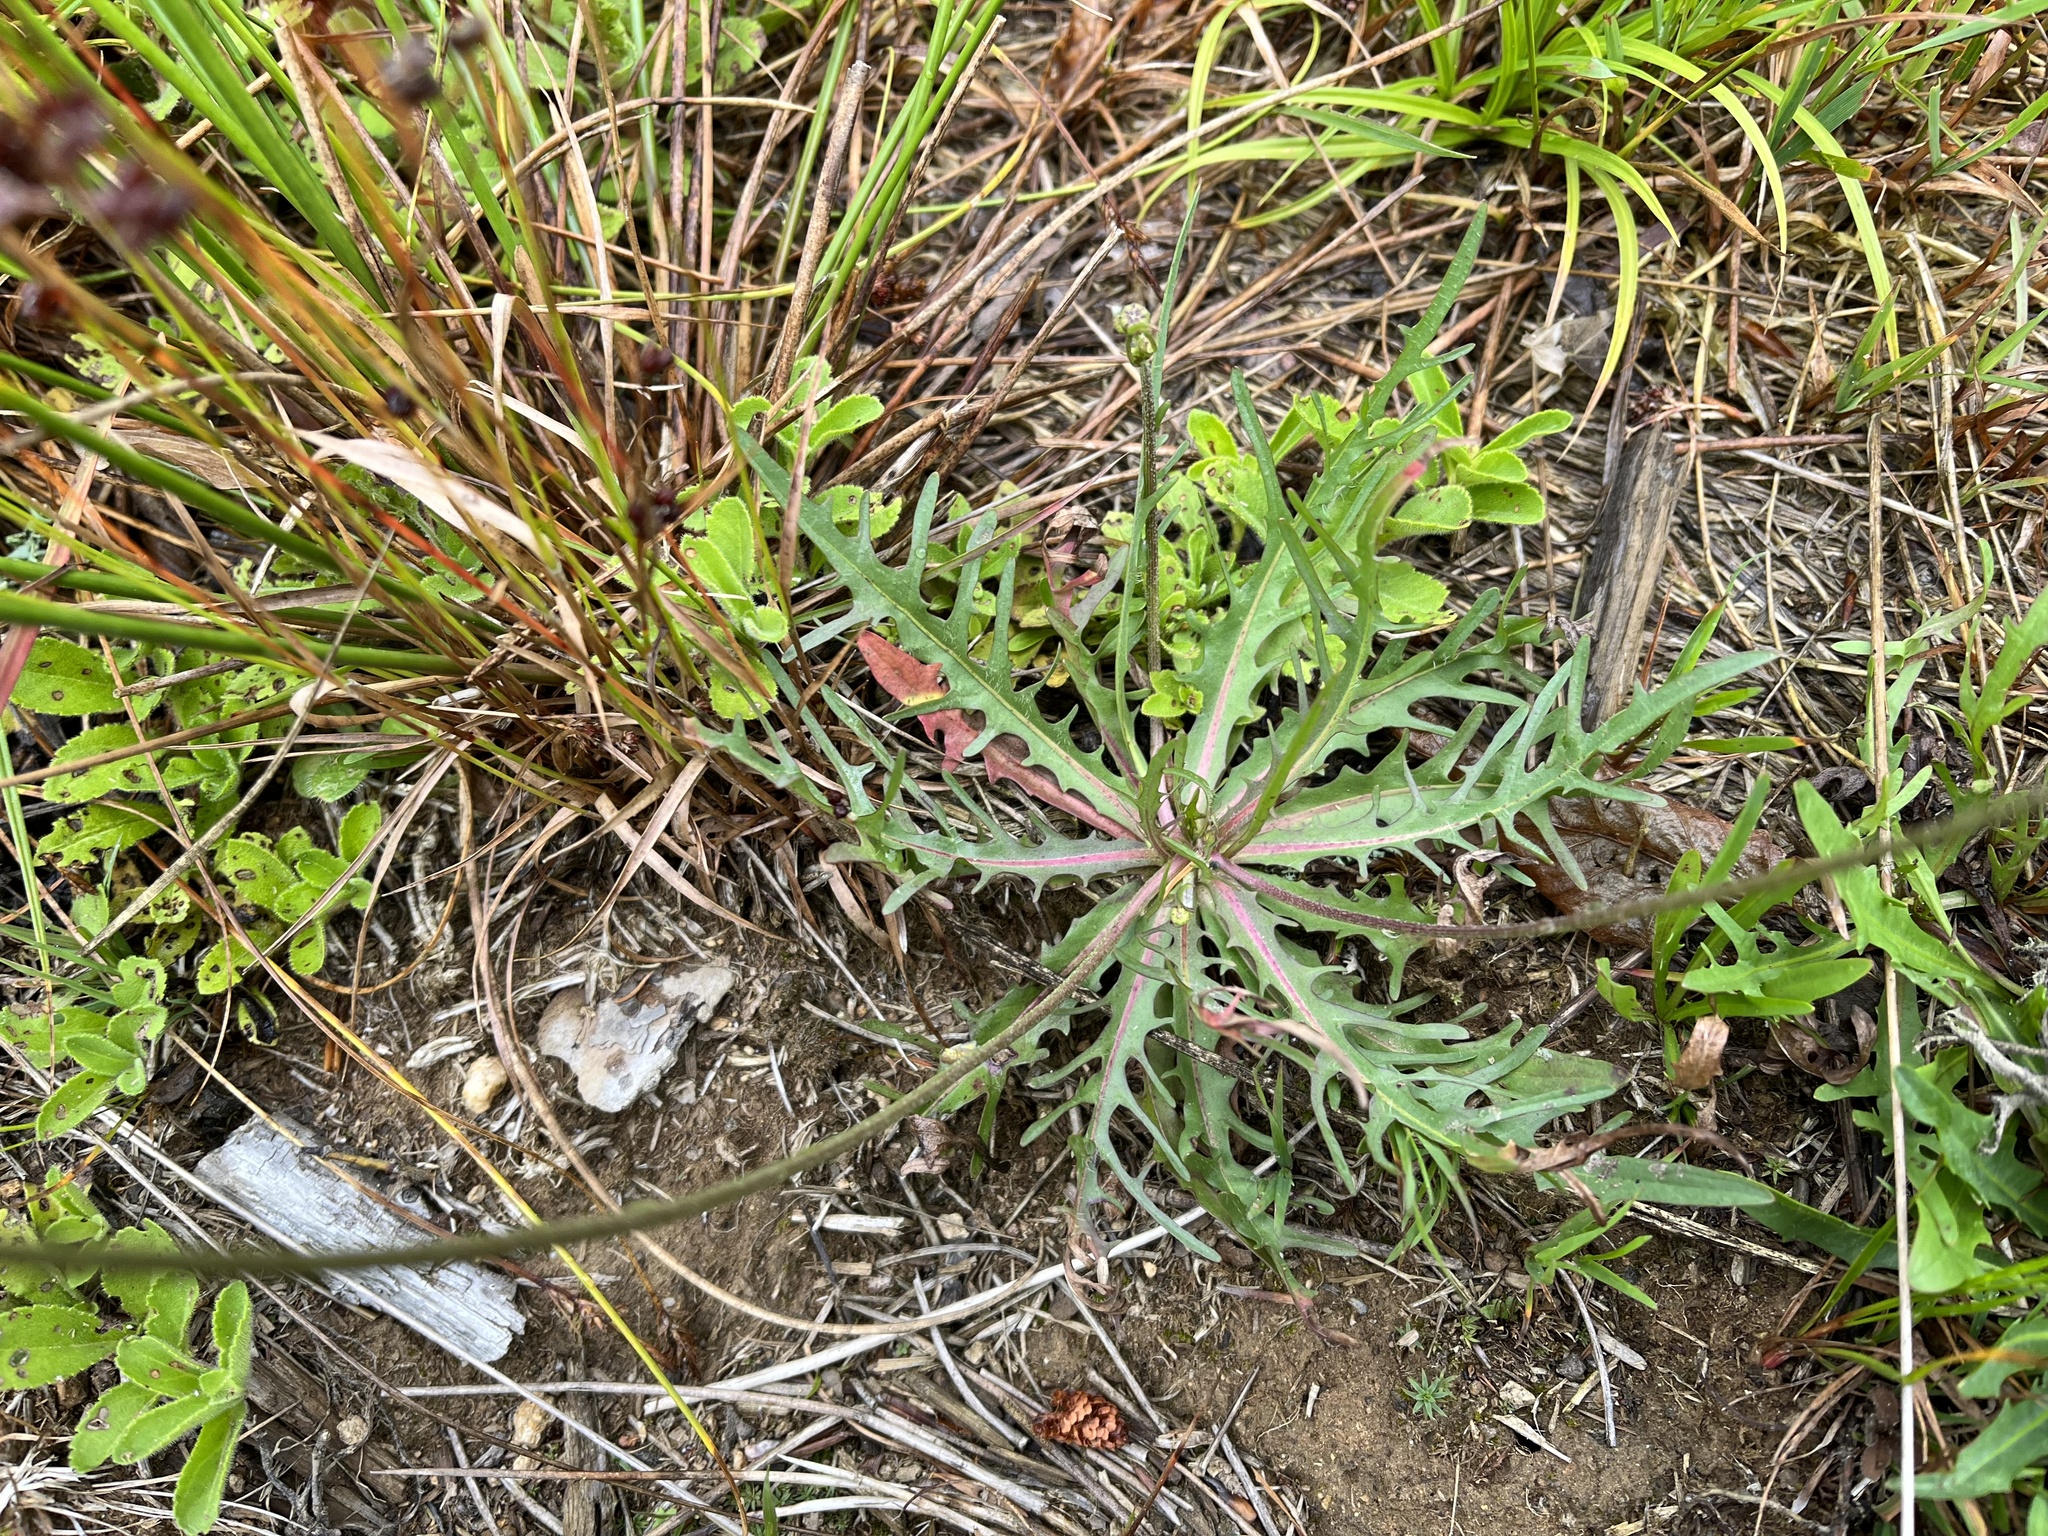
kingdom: Plantae
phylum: Tracheophyta
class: Magnoliopsida
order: Asterales
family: Asteraceae
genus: Scorzoneroides
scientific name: Scorzoneroides autumnalis
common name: Autumn hawkbit
